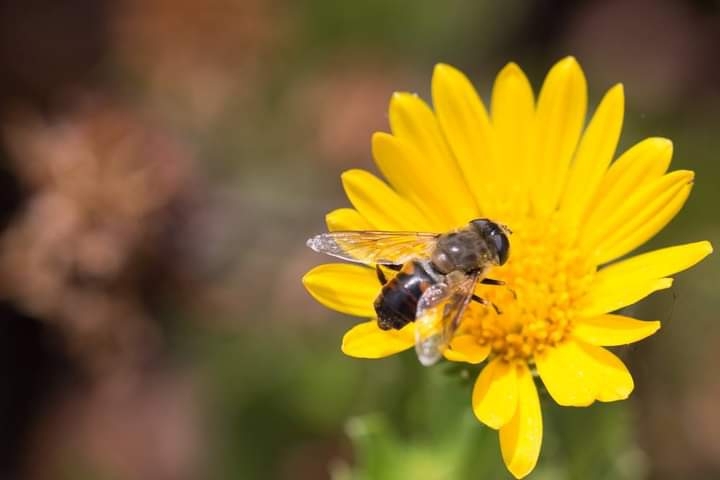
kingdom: Animalia
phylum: Arthropoda
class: Insecta
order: Diptera
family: Syrphidae
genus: Eristalis
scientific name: Eristalis tenax
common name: Drone fly
